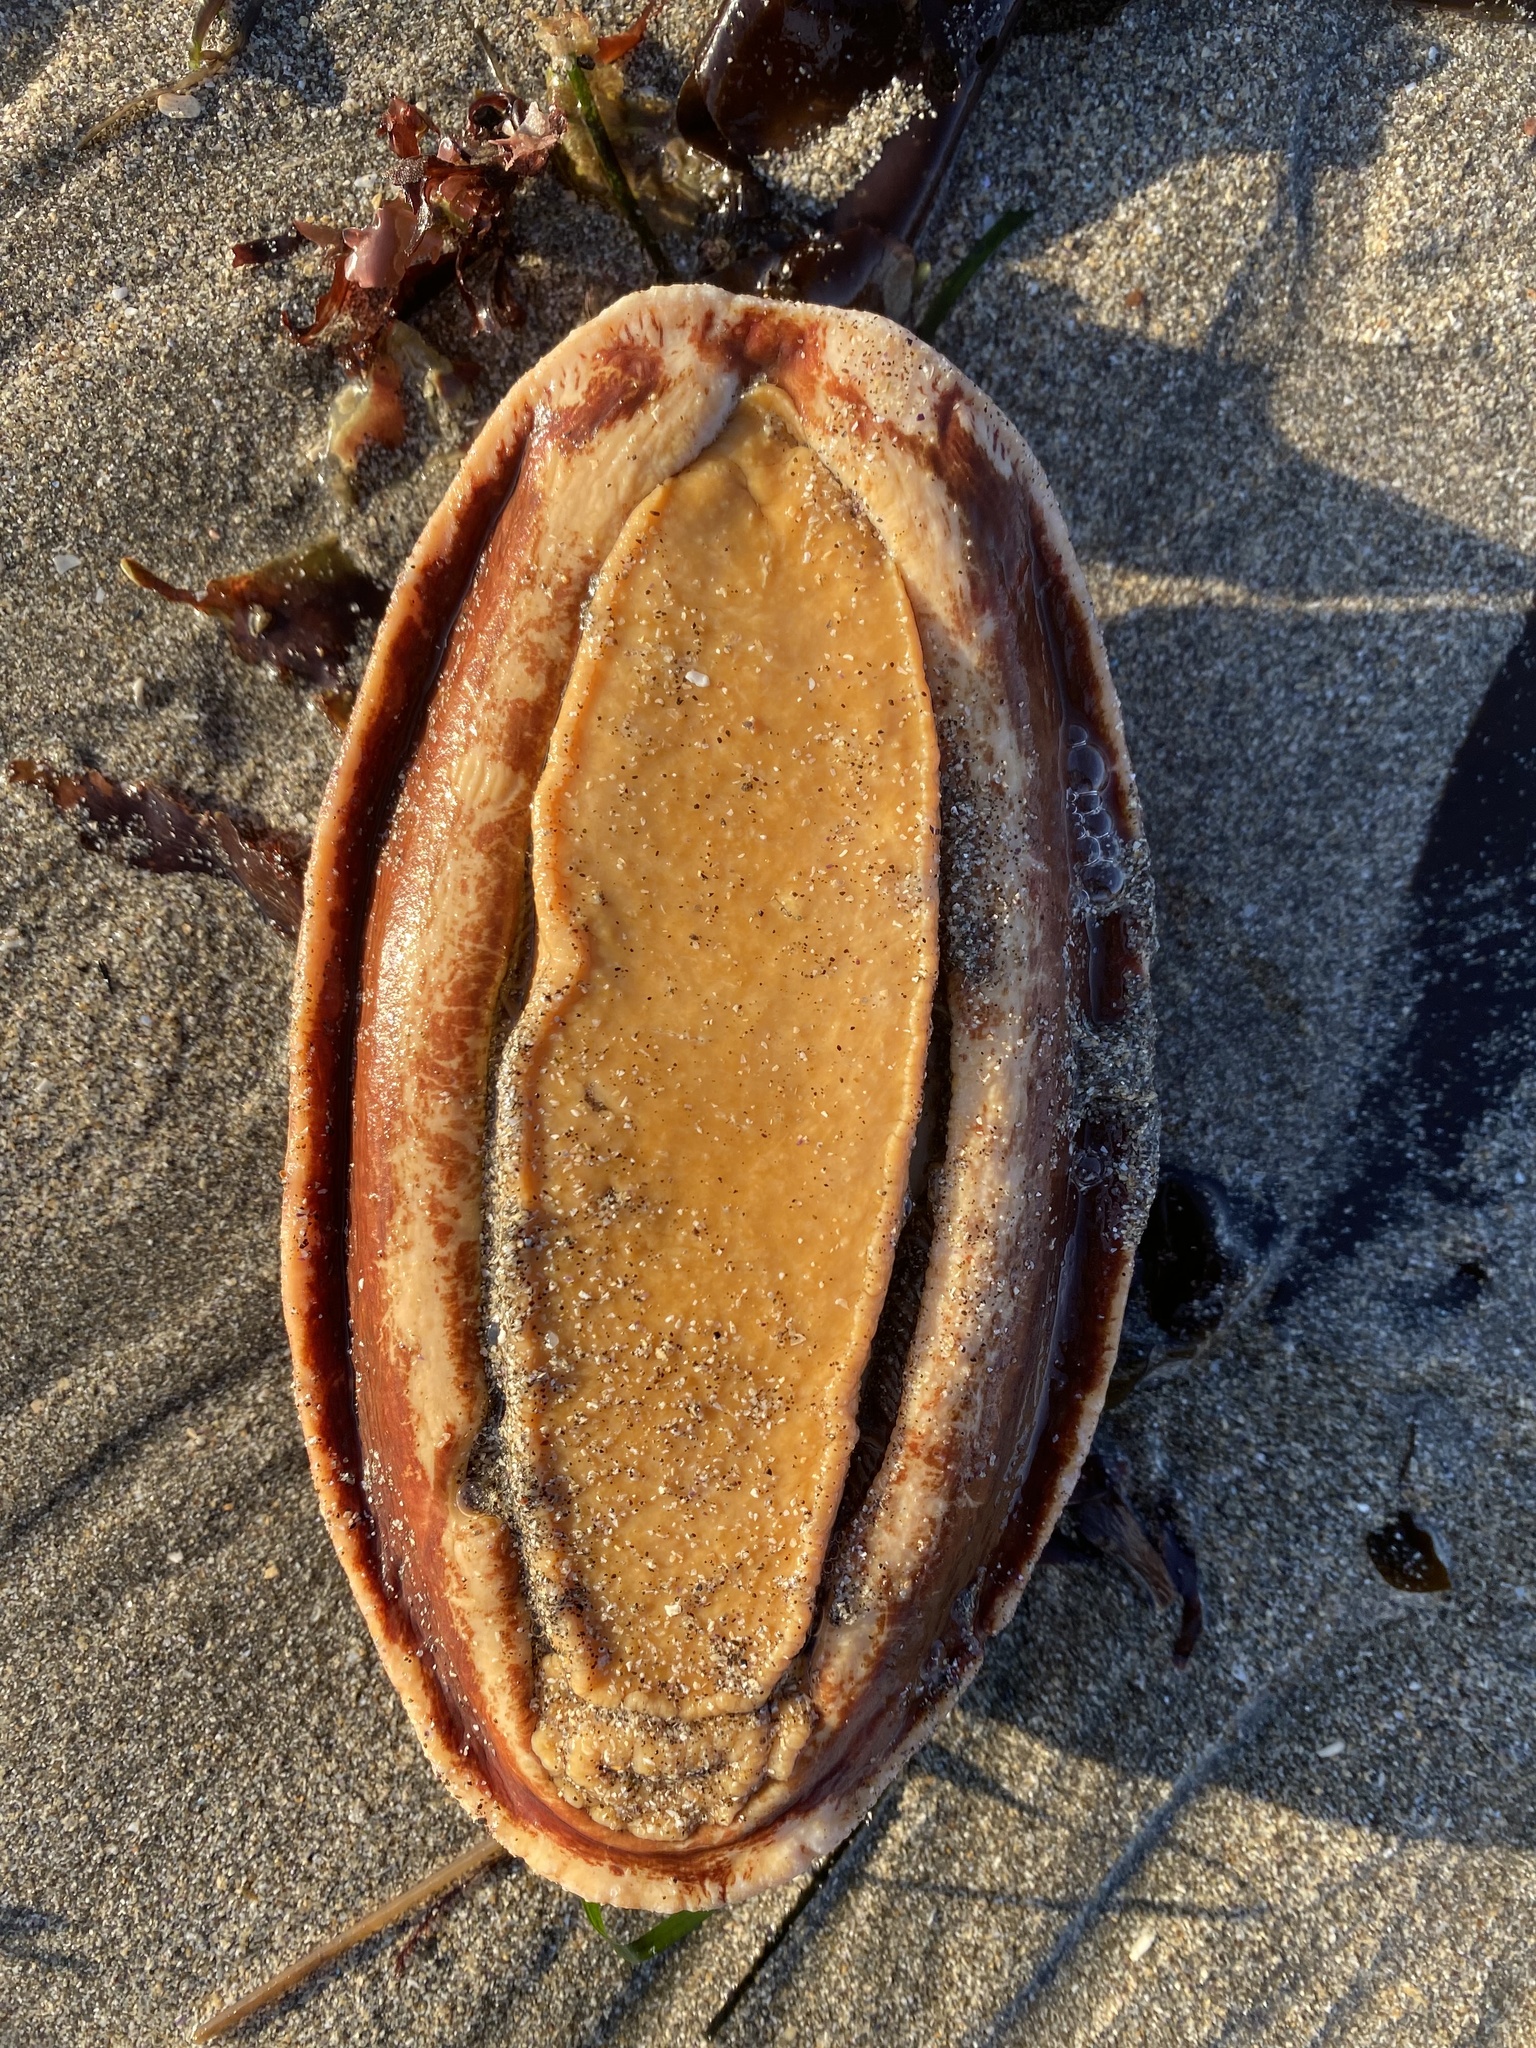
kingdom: Animalia
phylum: Mollusca
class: Polyplacophora
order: Chitonida
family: Acanthochitonidae
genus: Cryptochiton
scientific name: Cryptochiton stelleri
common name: Giant pacific chiton
